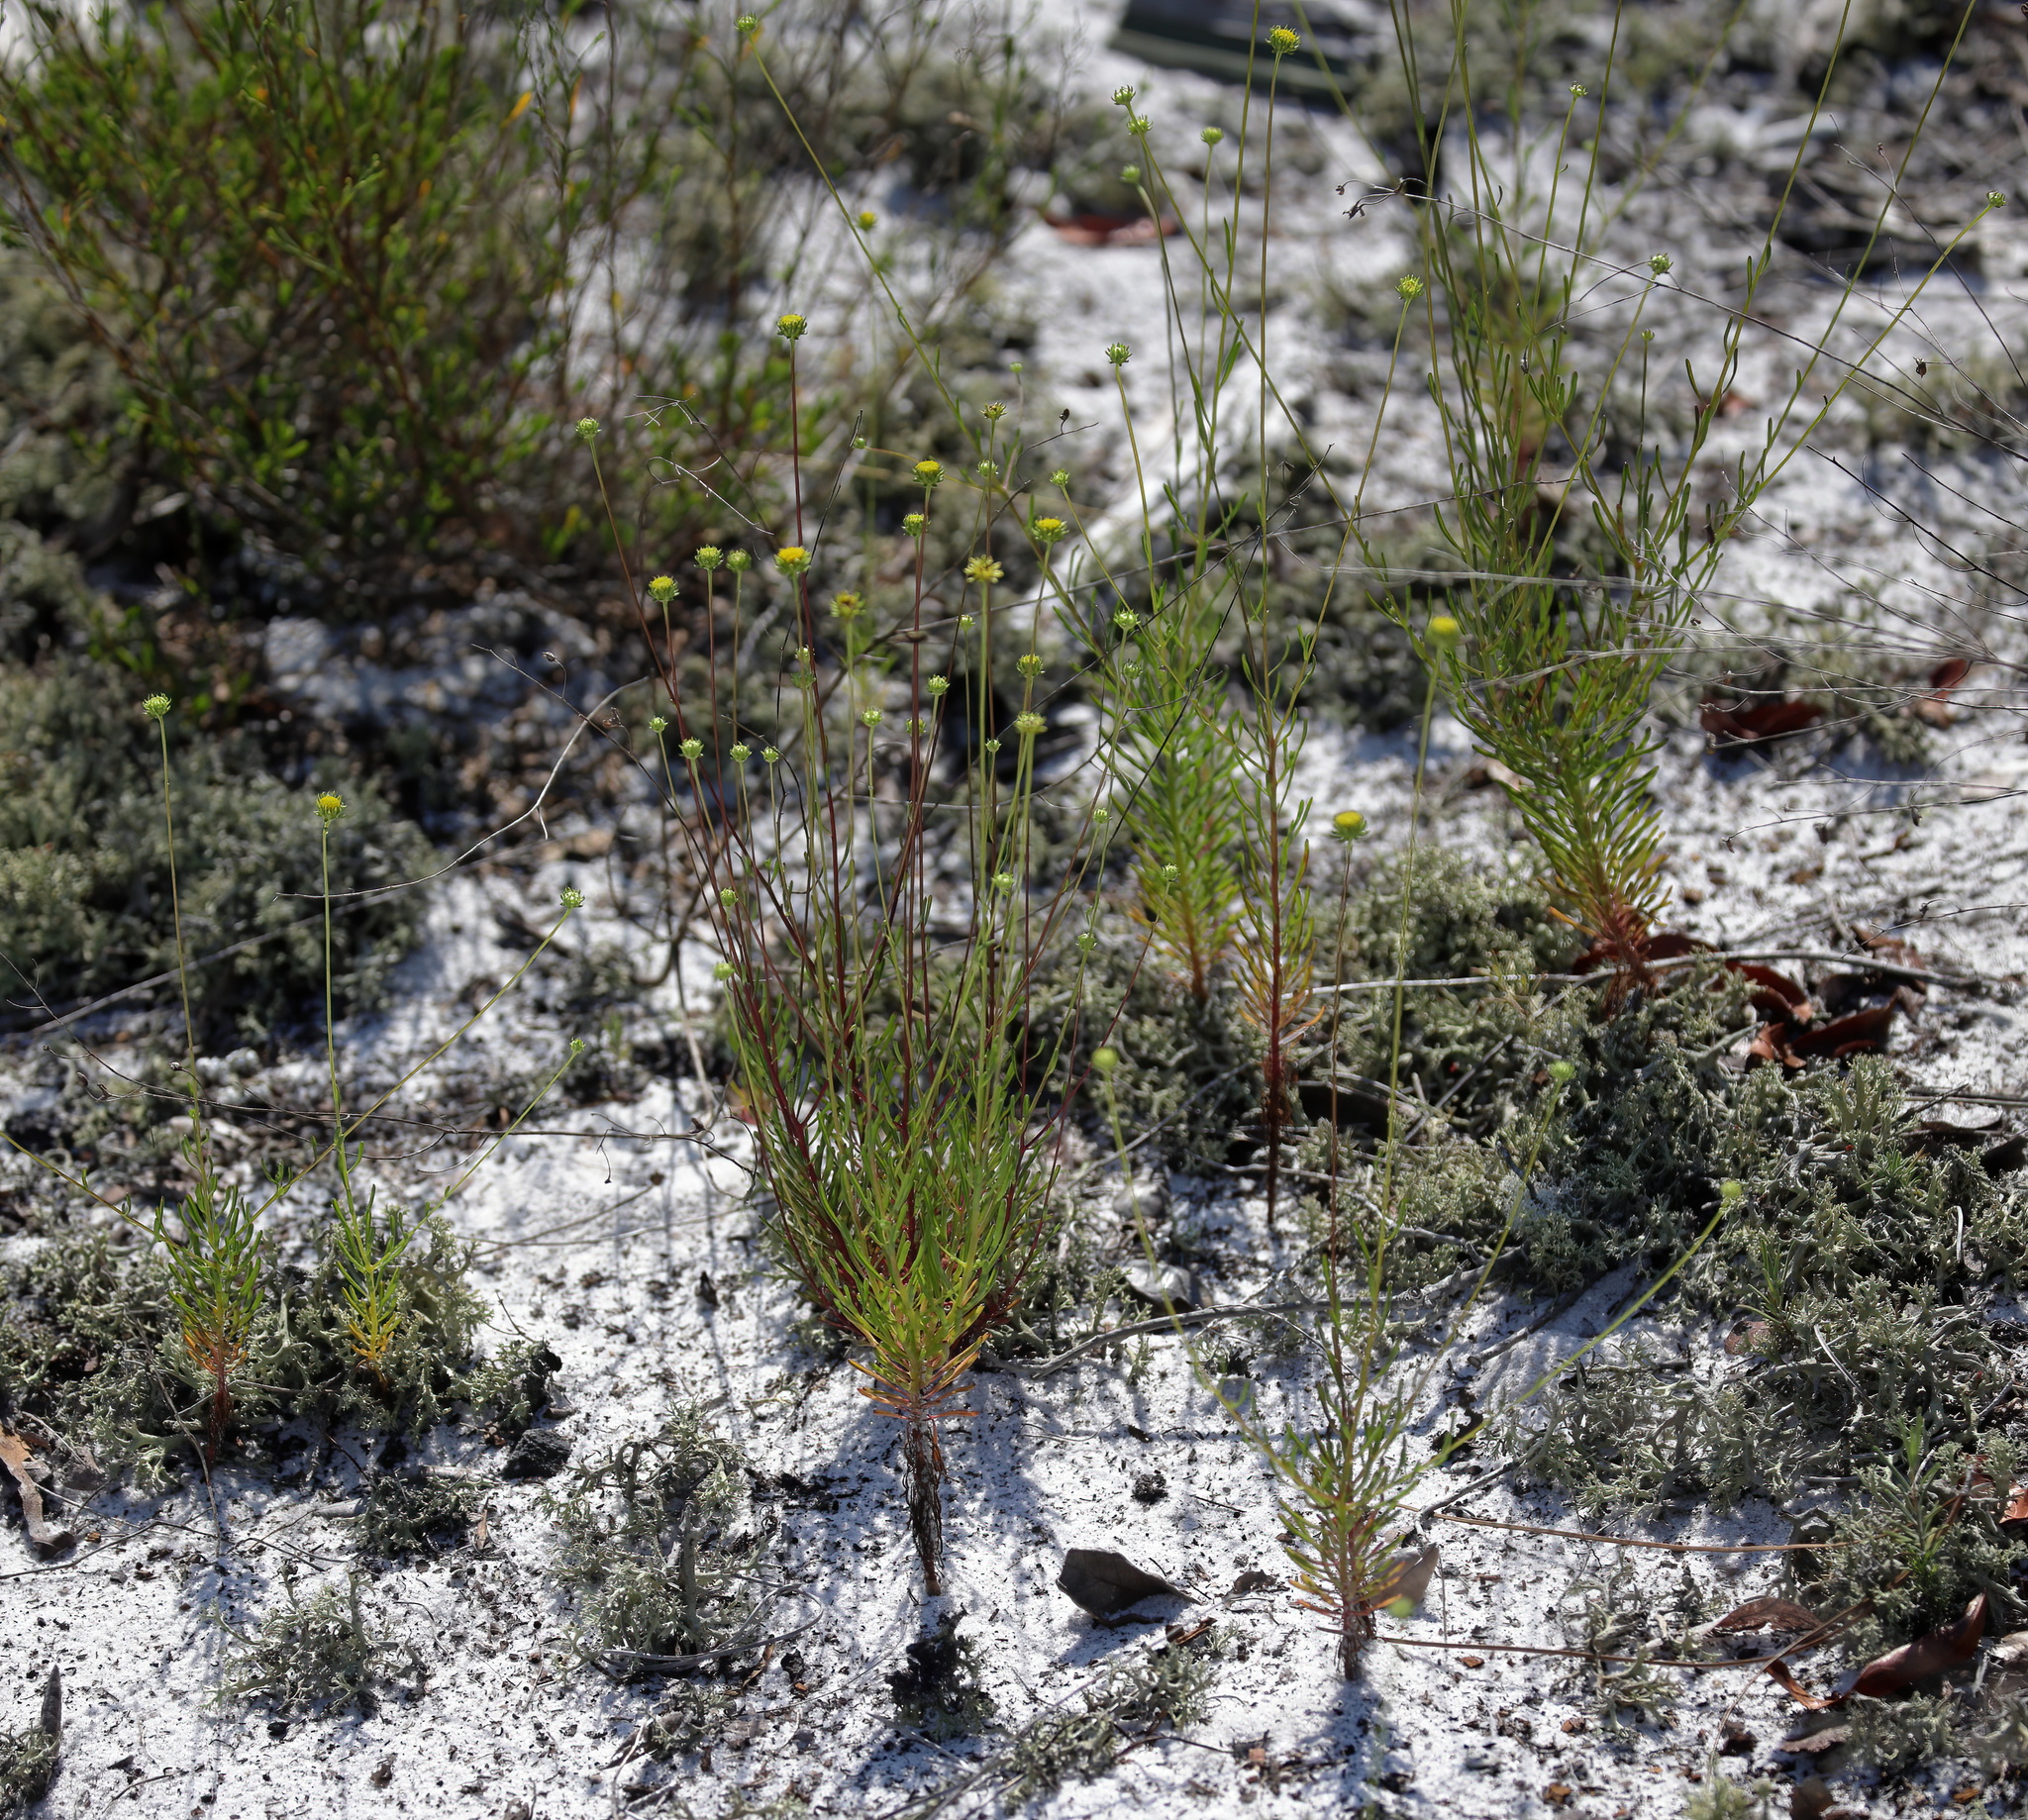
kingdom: Plantae
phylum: Tracheophyta
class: Magnoliopsida
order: Asterales
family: Asteraceae
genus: Balduina
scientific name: Balduina angustifolia
